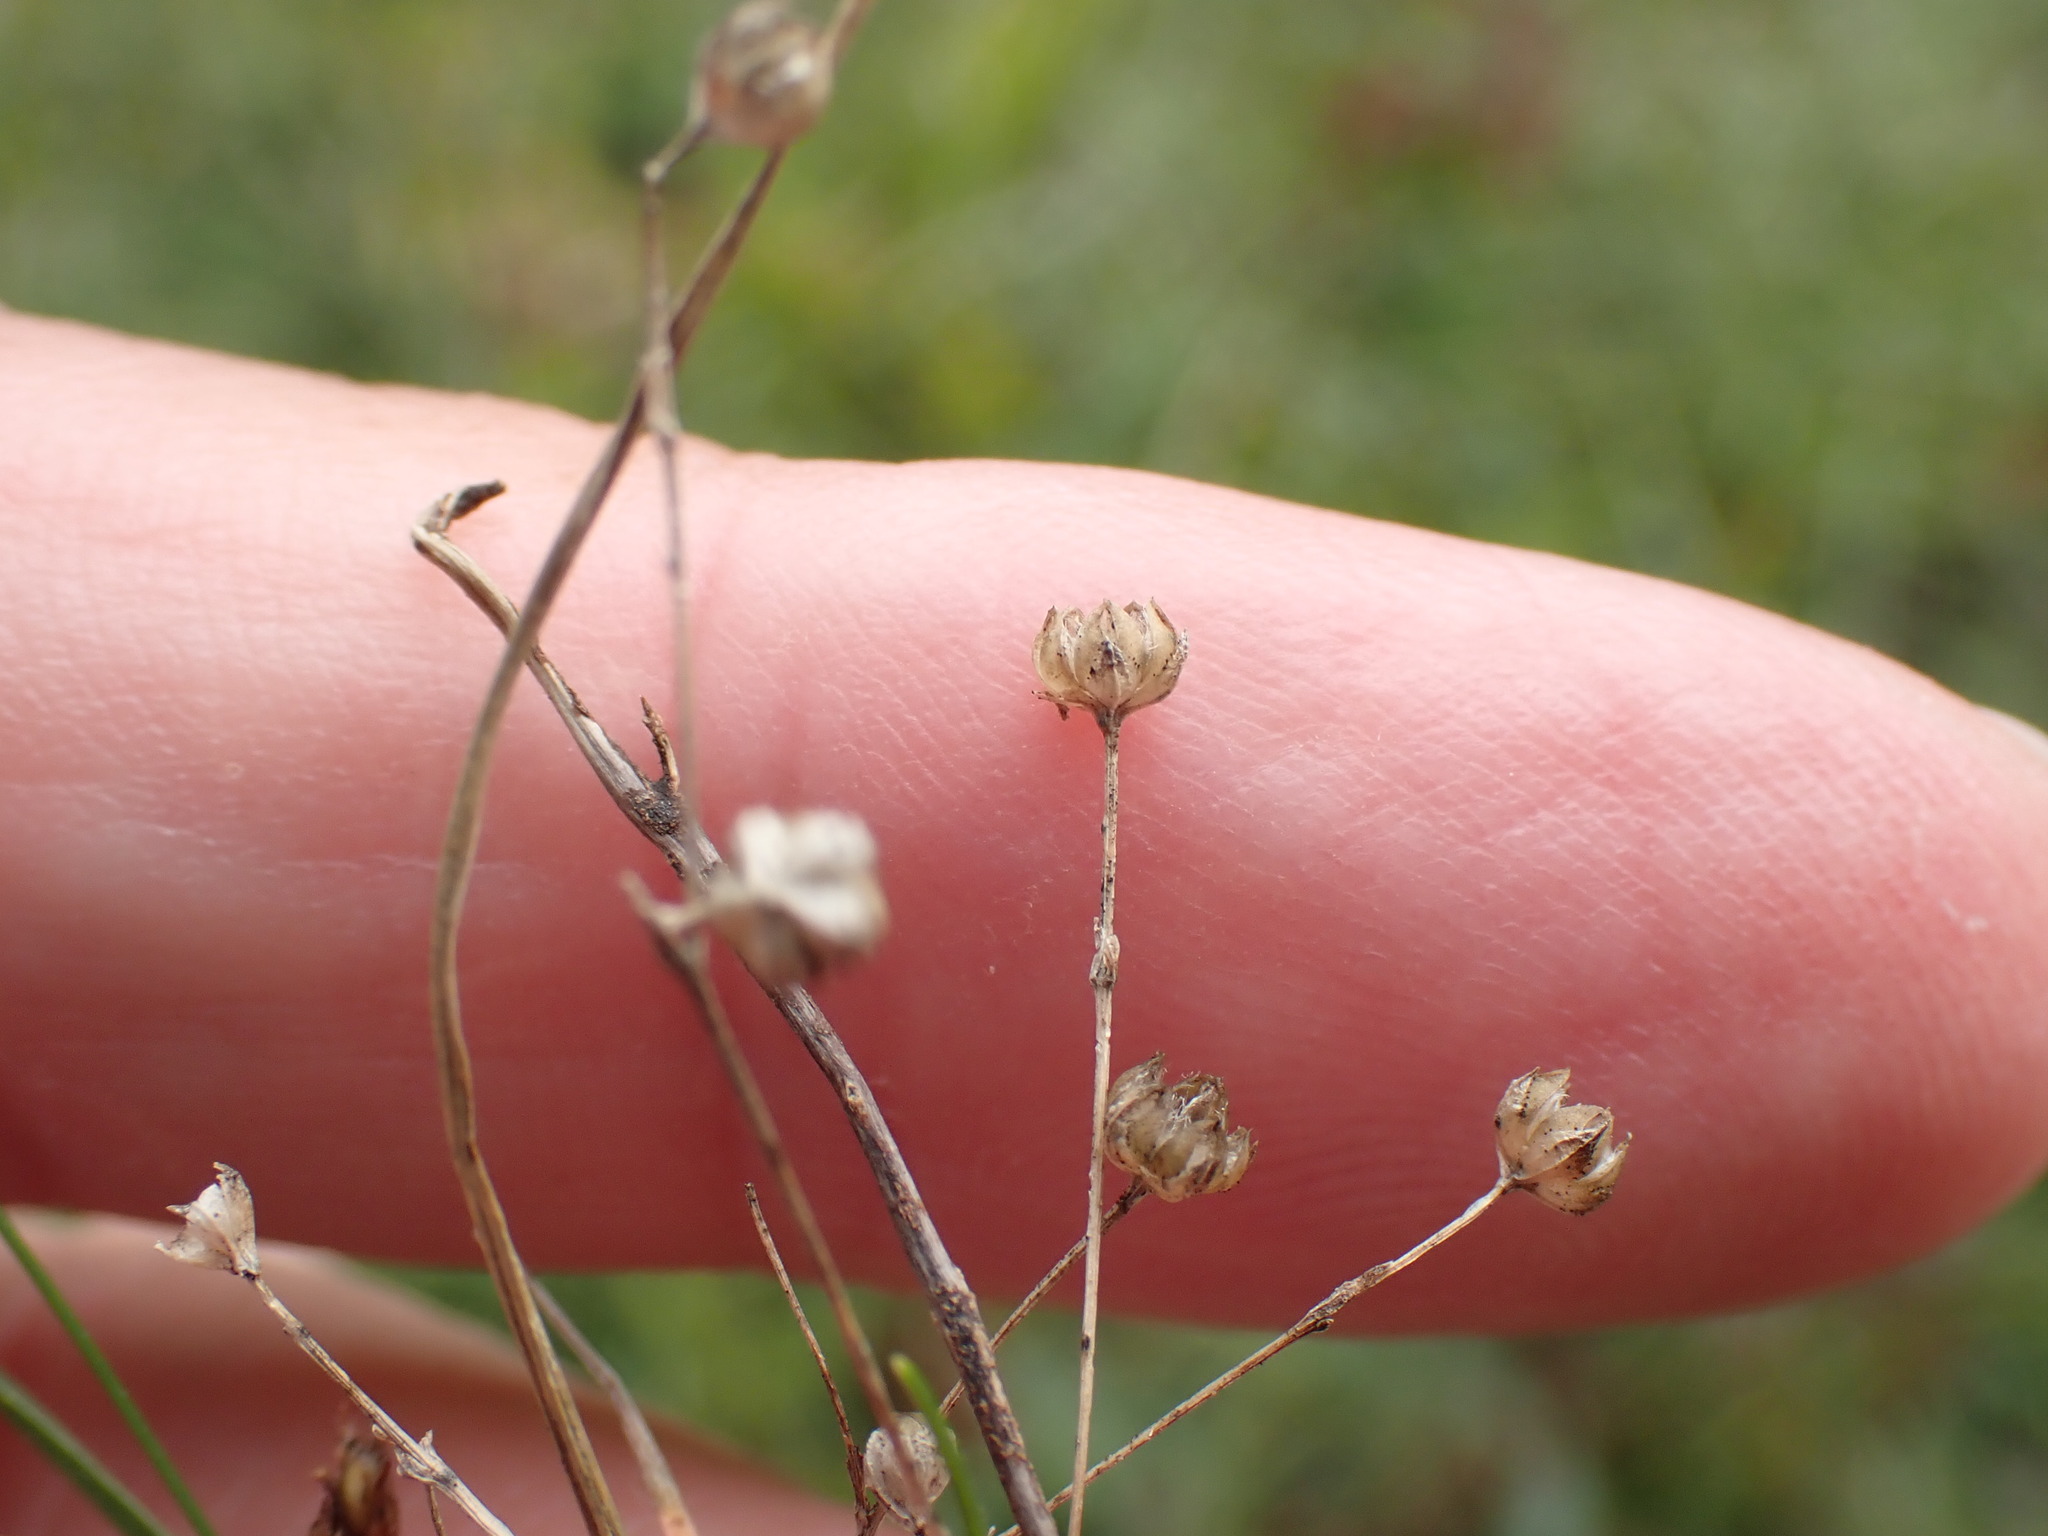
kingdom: Plantae
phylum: Tracheophyta
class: Magnoliopsida
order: Malpighiales
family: Linaceae
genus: Linum
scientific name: Linum catharticum
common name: Fairy flax
